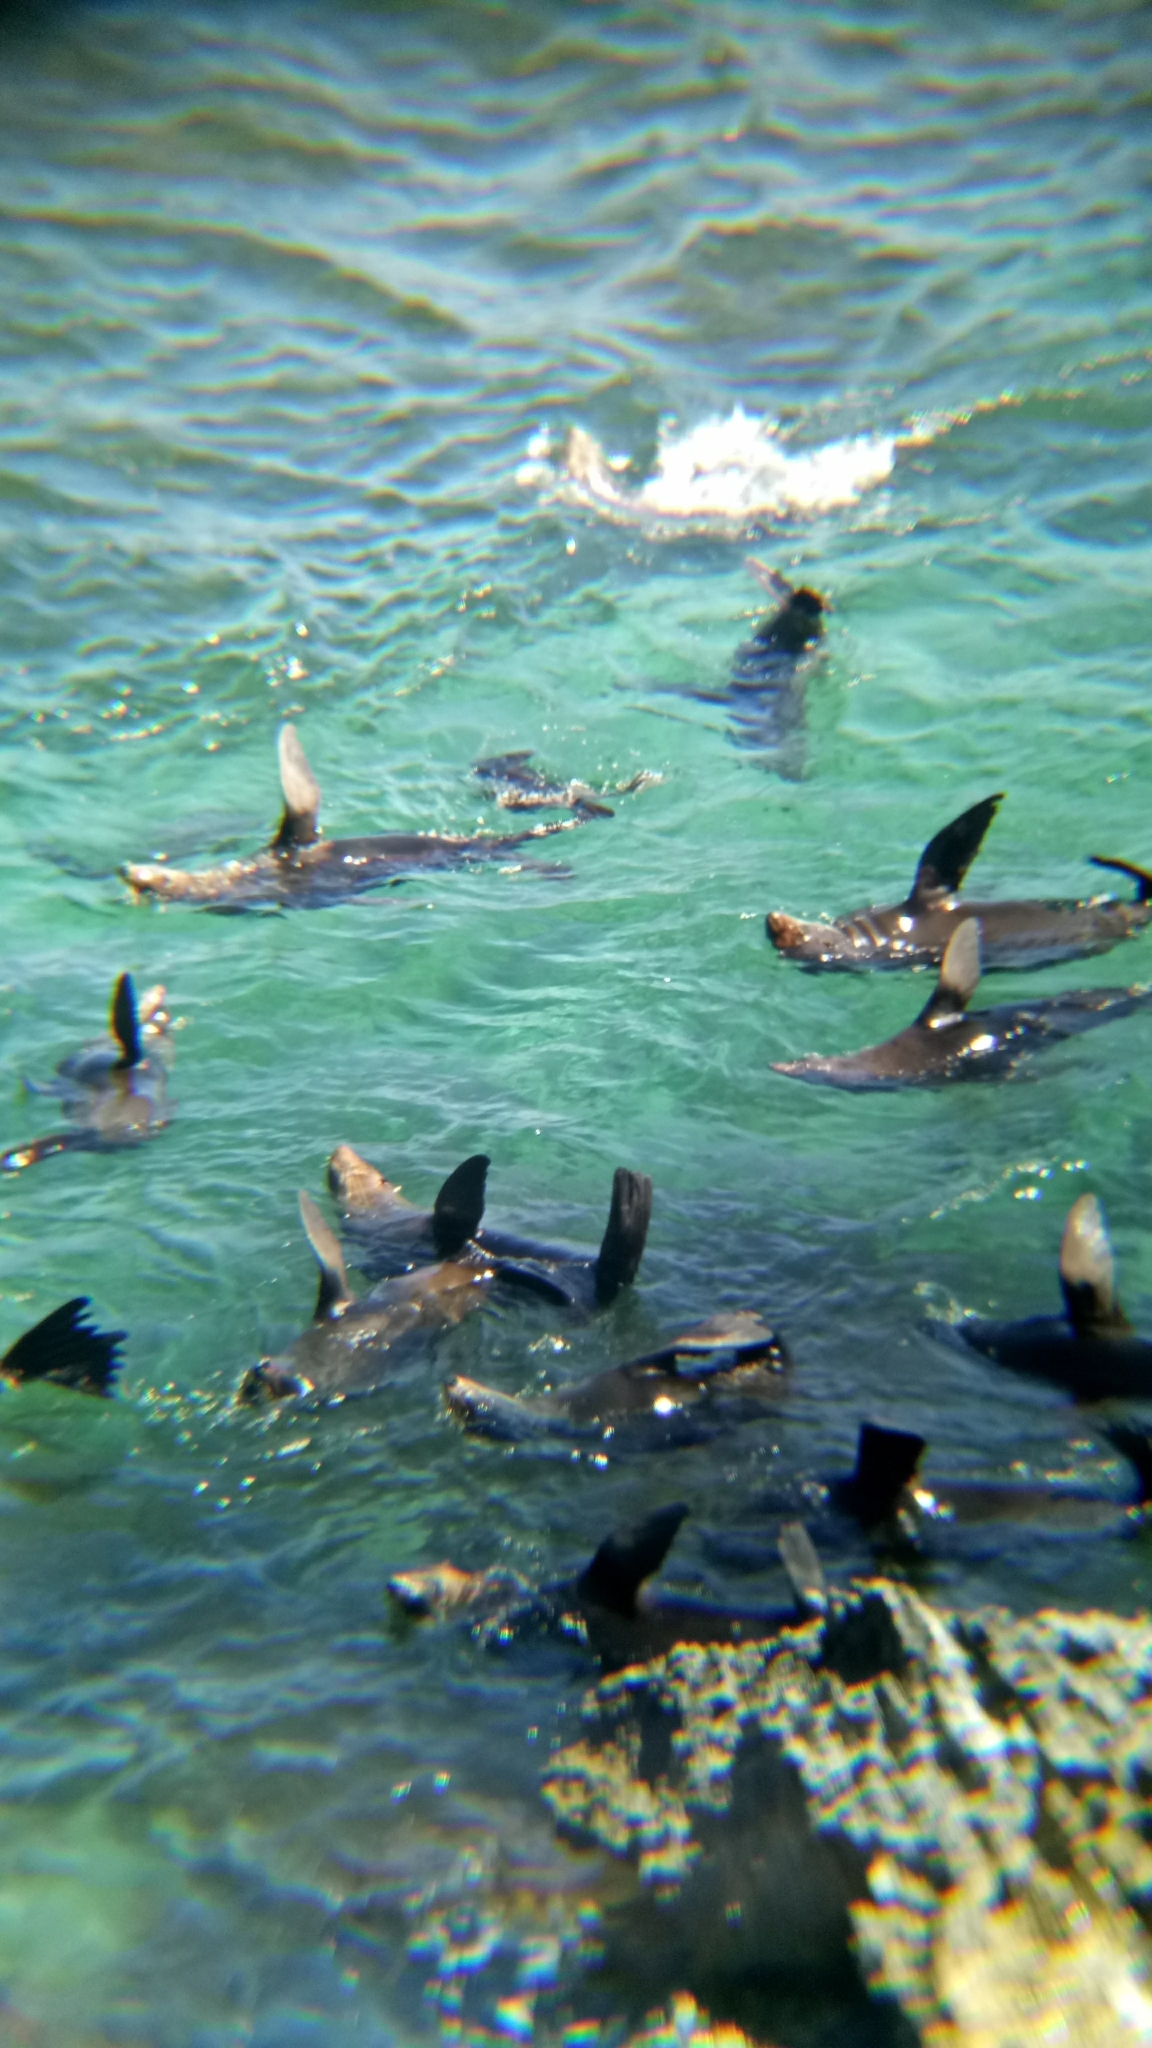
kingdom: Animalia
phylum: Chordata
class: Mammalia
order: Carnivora
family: Otariidae
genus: Arctocephalus
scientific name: Arctocephalus forsteri
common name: New zealand fur seal
